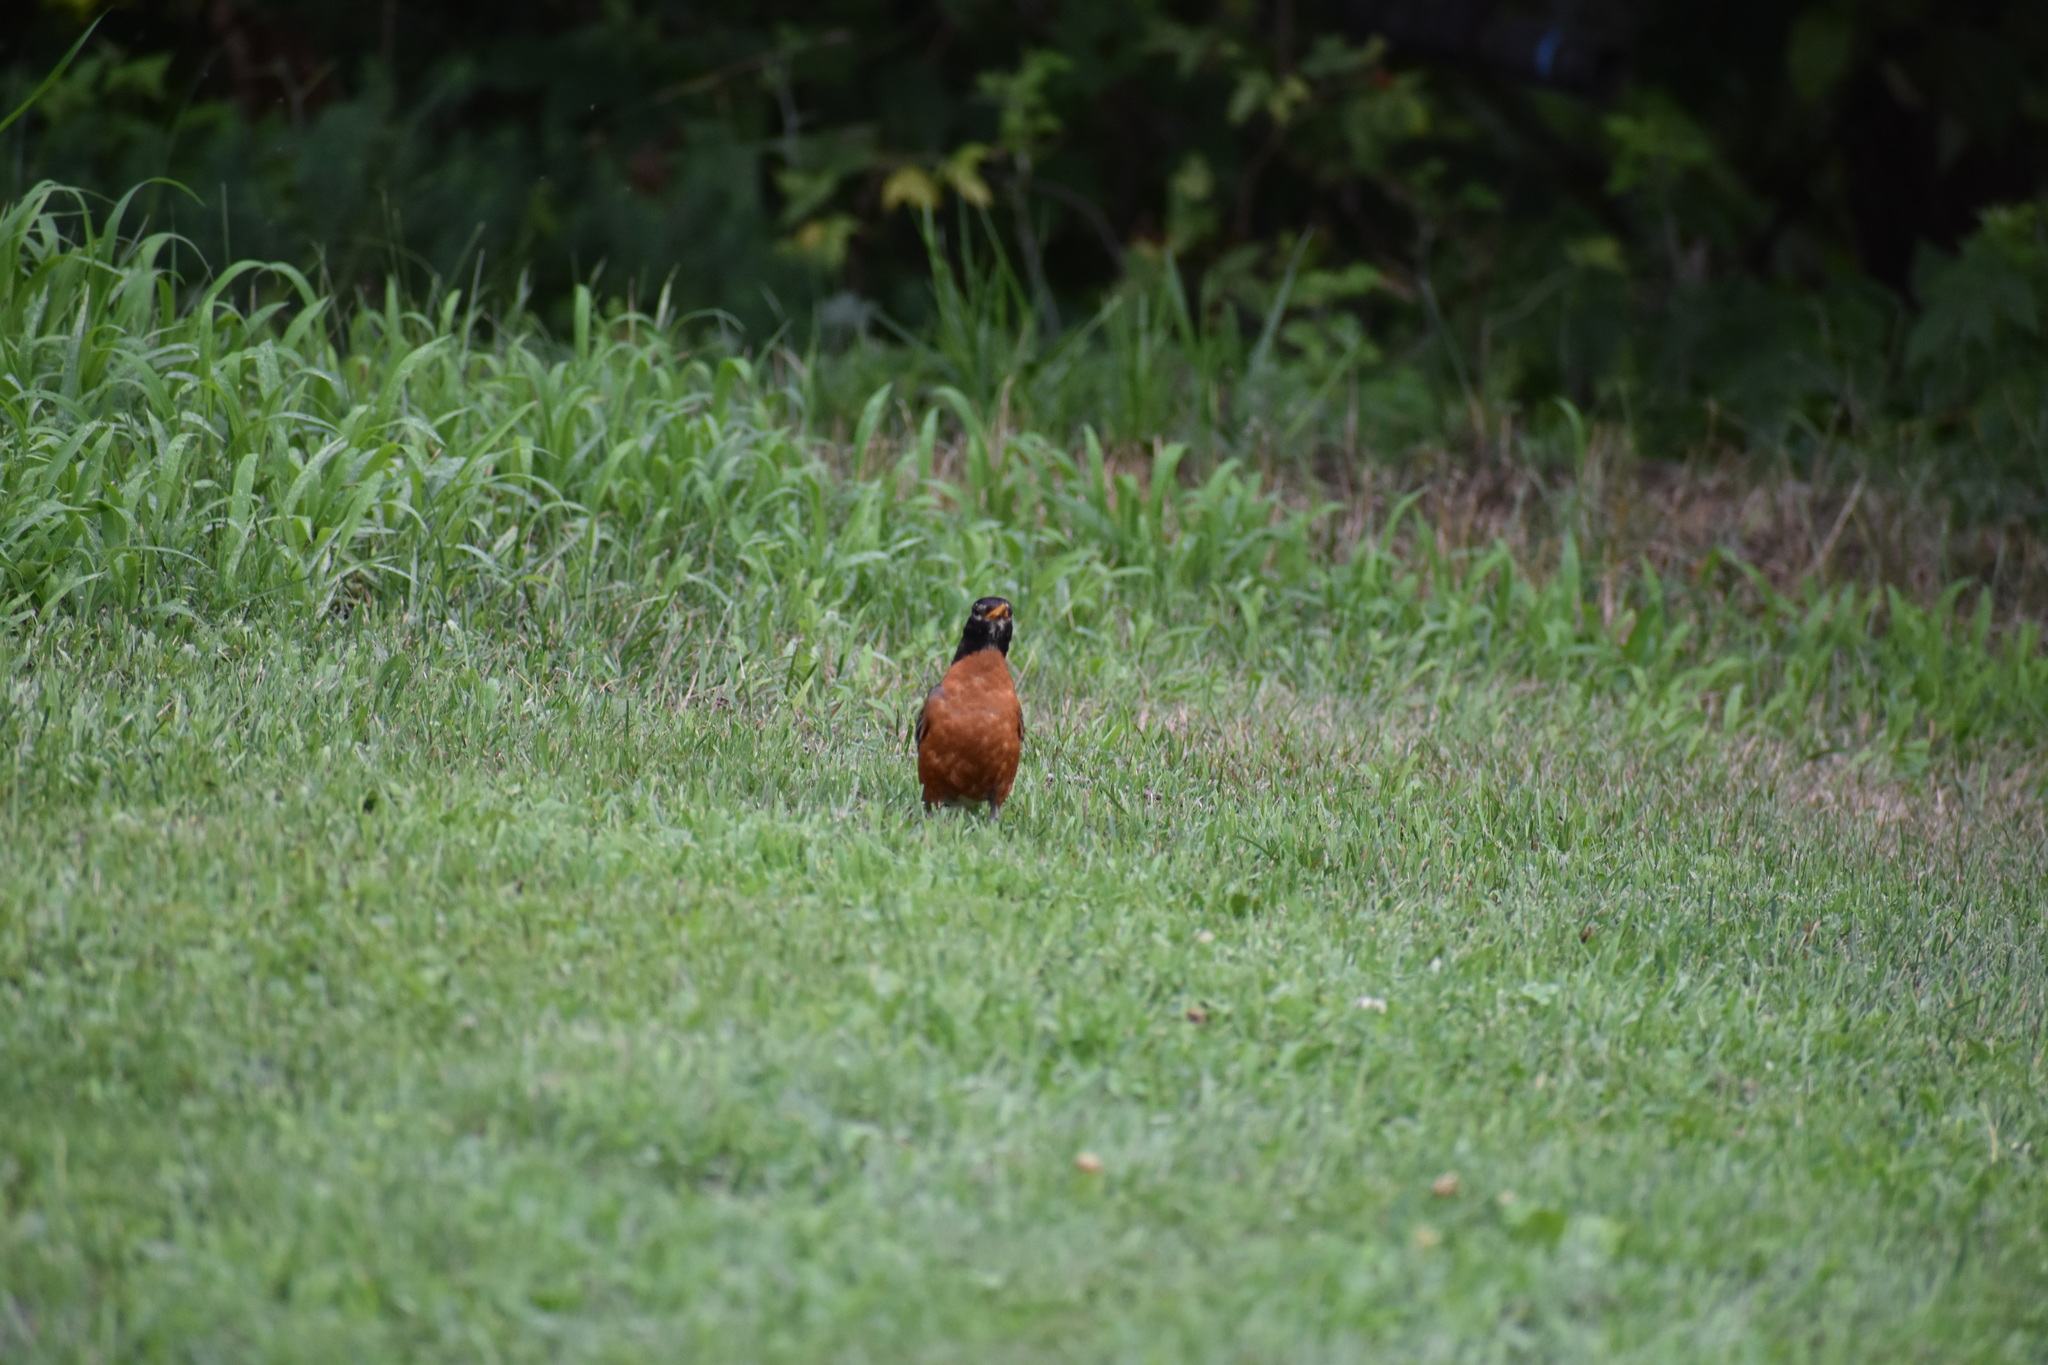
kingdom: Animalia
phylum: Chordata
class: Aves
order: Passeriformes
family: Turdidae
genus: Turdus
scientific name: Turdus migratorius
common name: American robin
